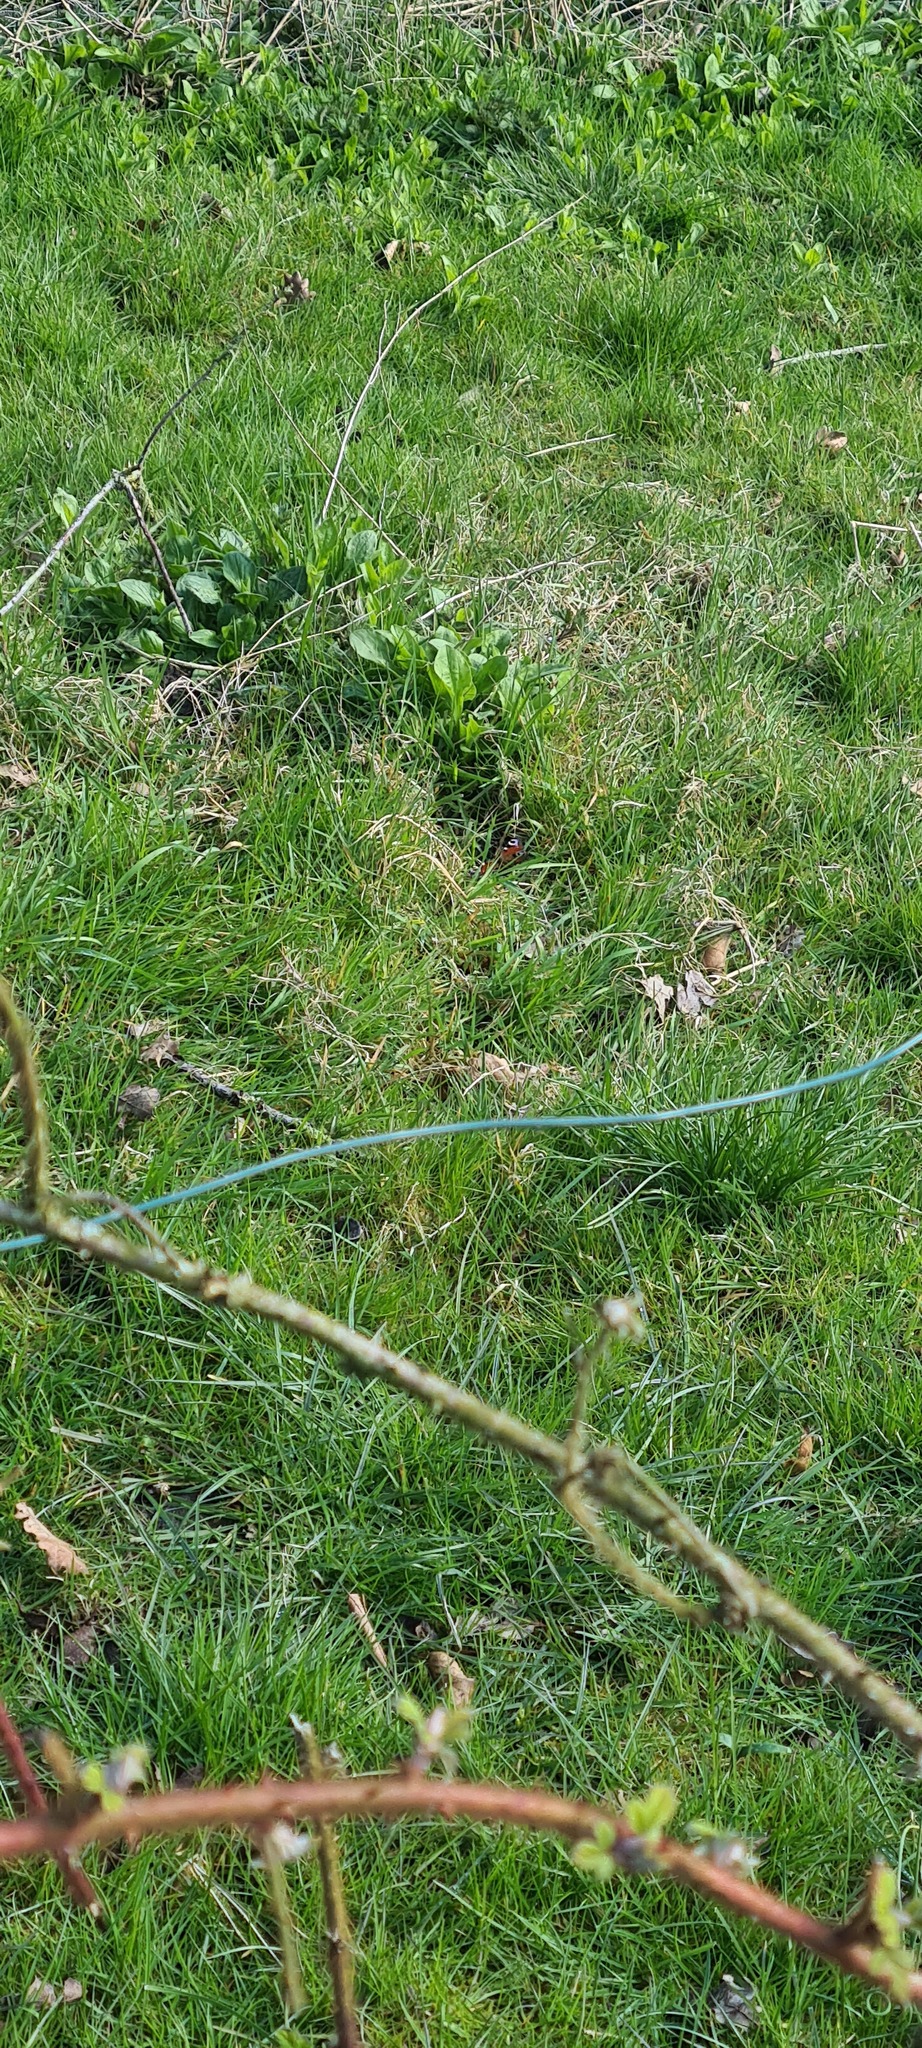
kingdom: Animalia
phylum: Arthropoda
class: Insecta
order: Lepidoptera
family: Nymphalidae
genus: Aglais
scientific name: Aglais io
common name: Peacock
